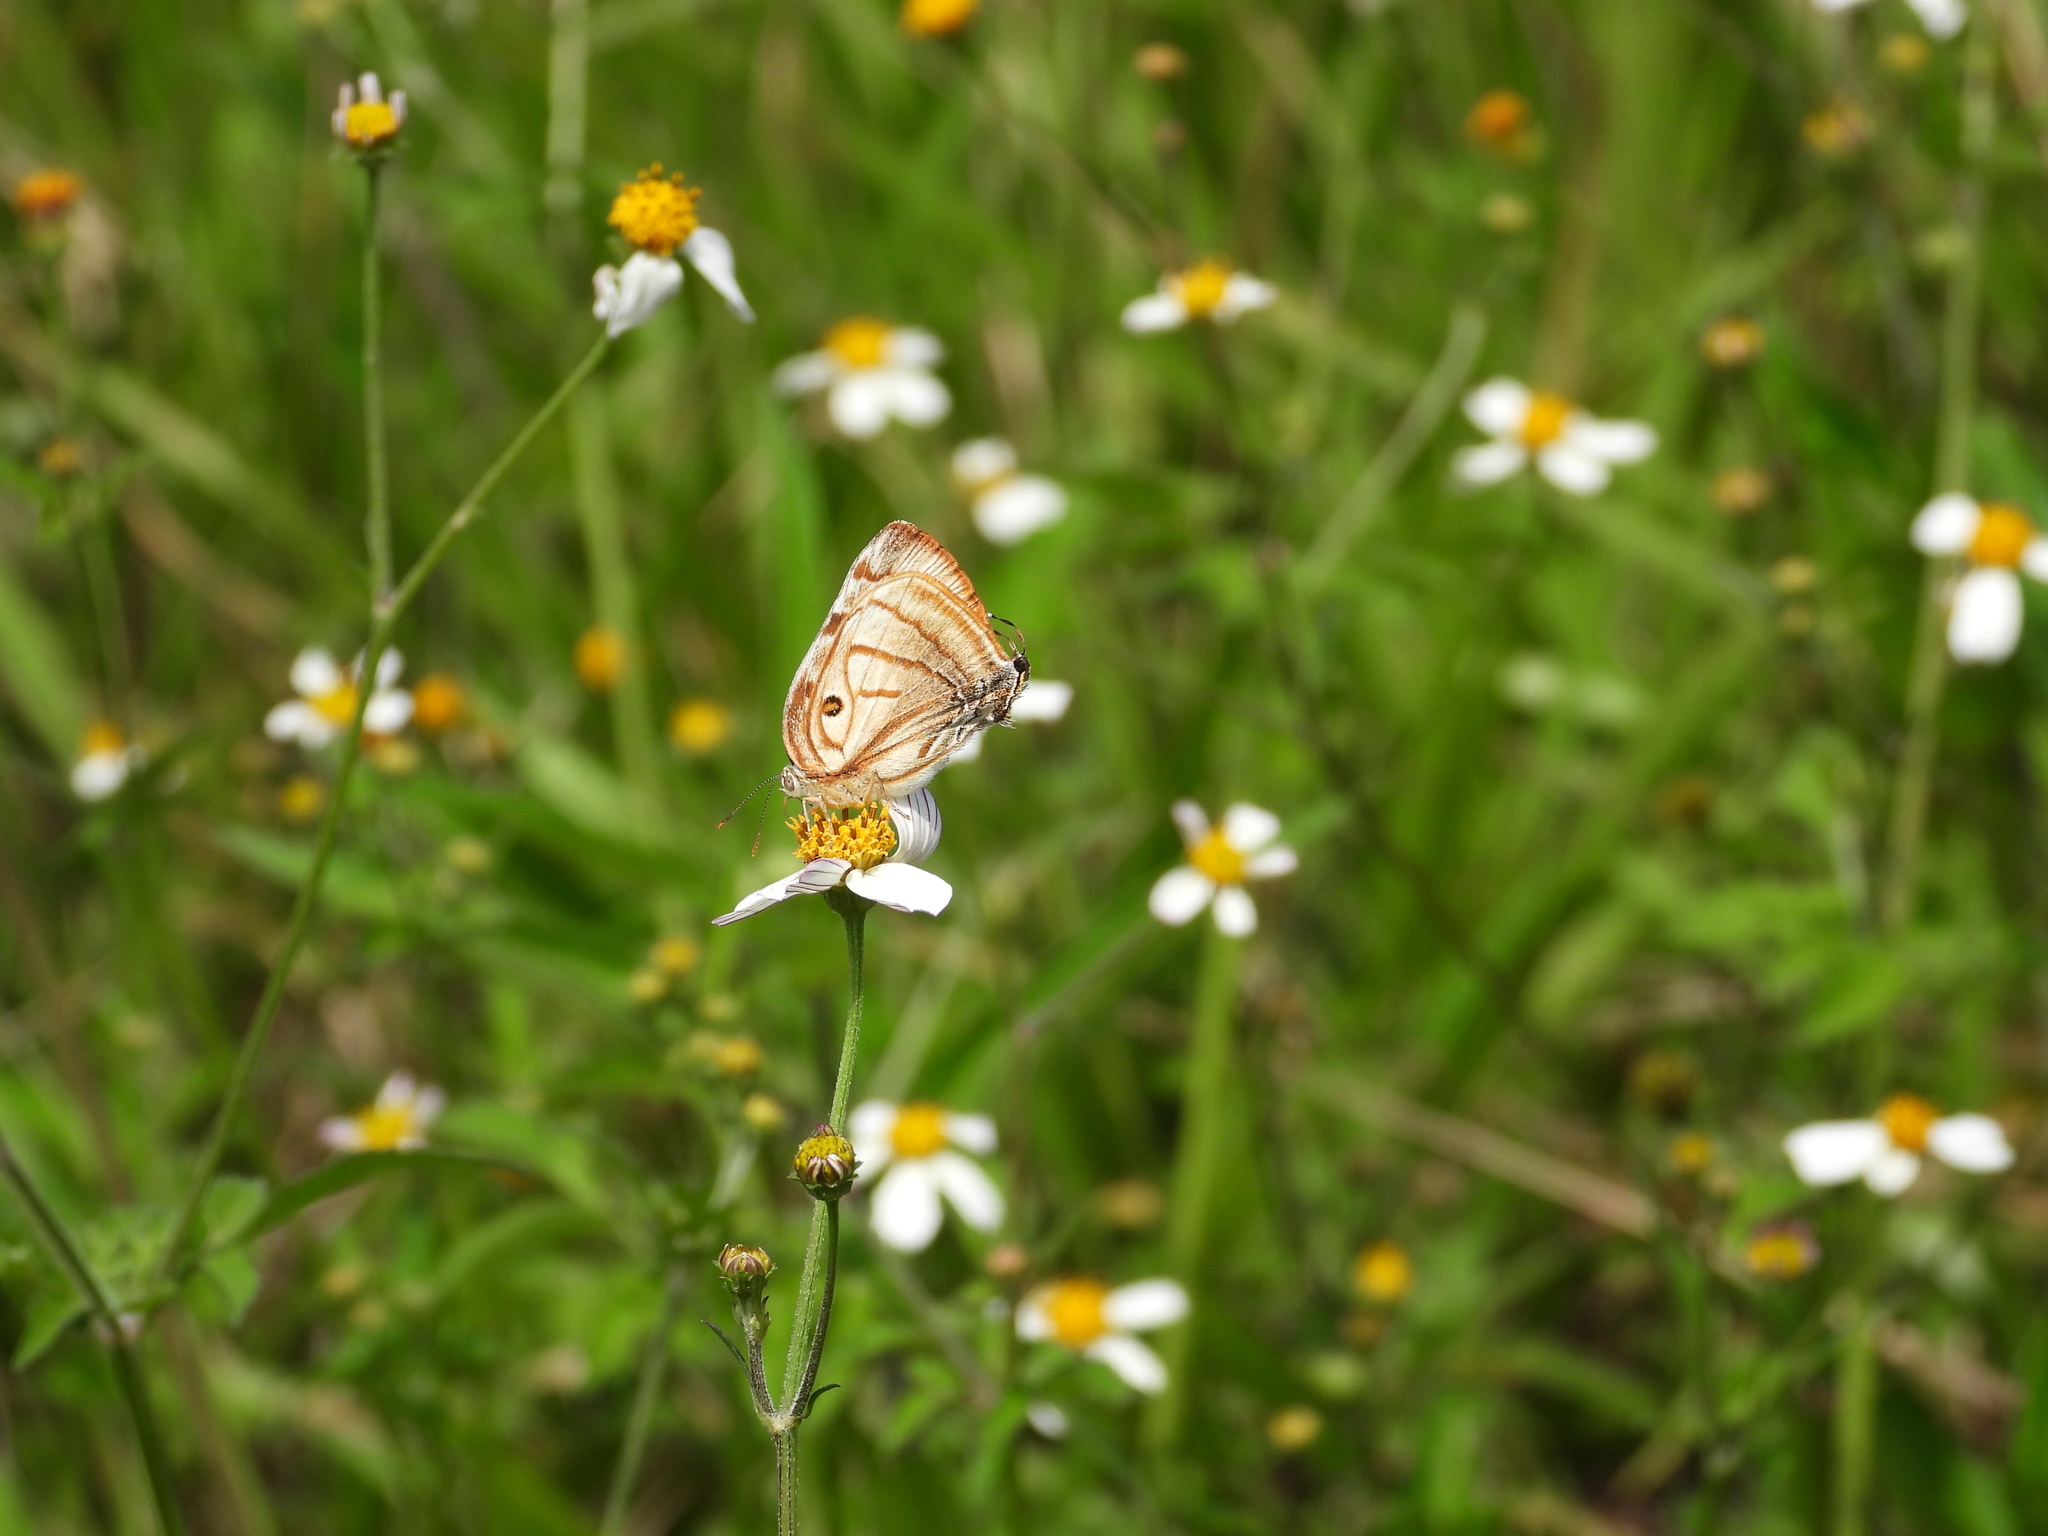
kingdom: Animalia
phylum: Arthropoda
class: Insecta
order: Lepidoptera
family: Lycaenidae
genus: Rekoa
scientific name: Rekoa meton
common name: Meton hairstreak
